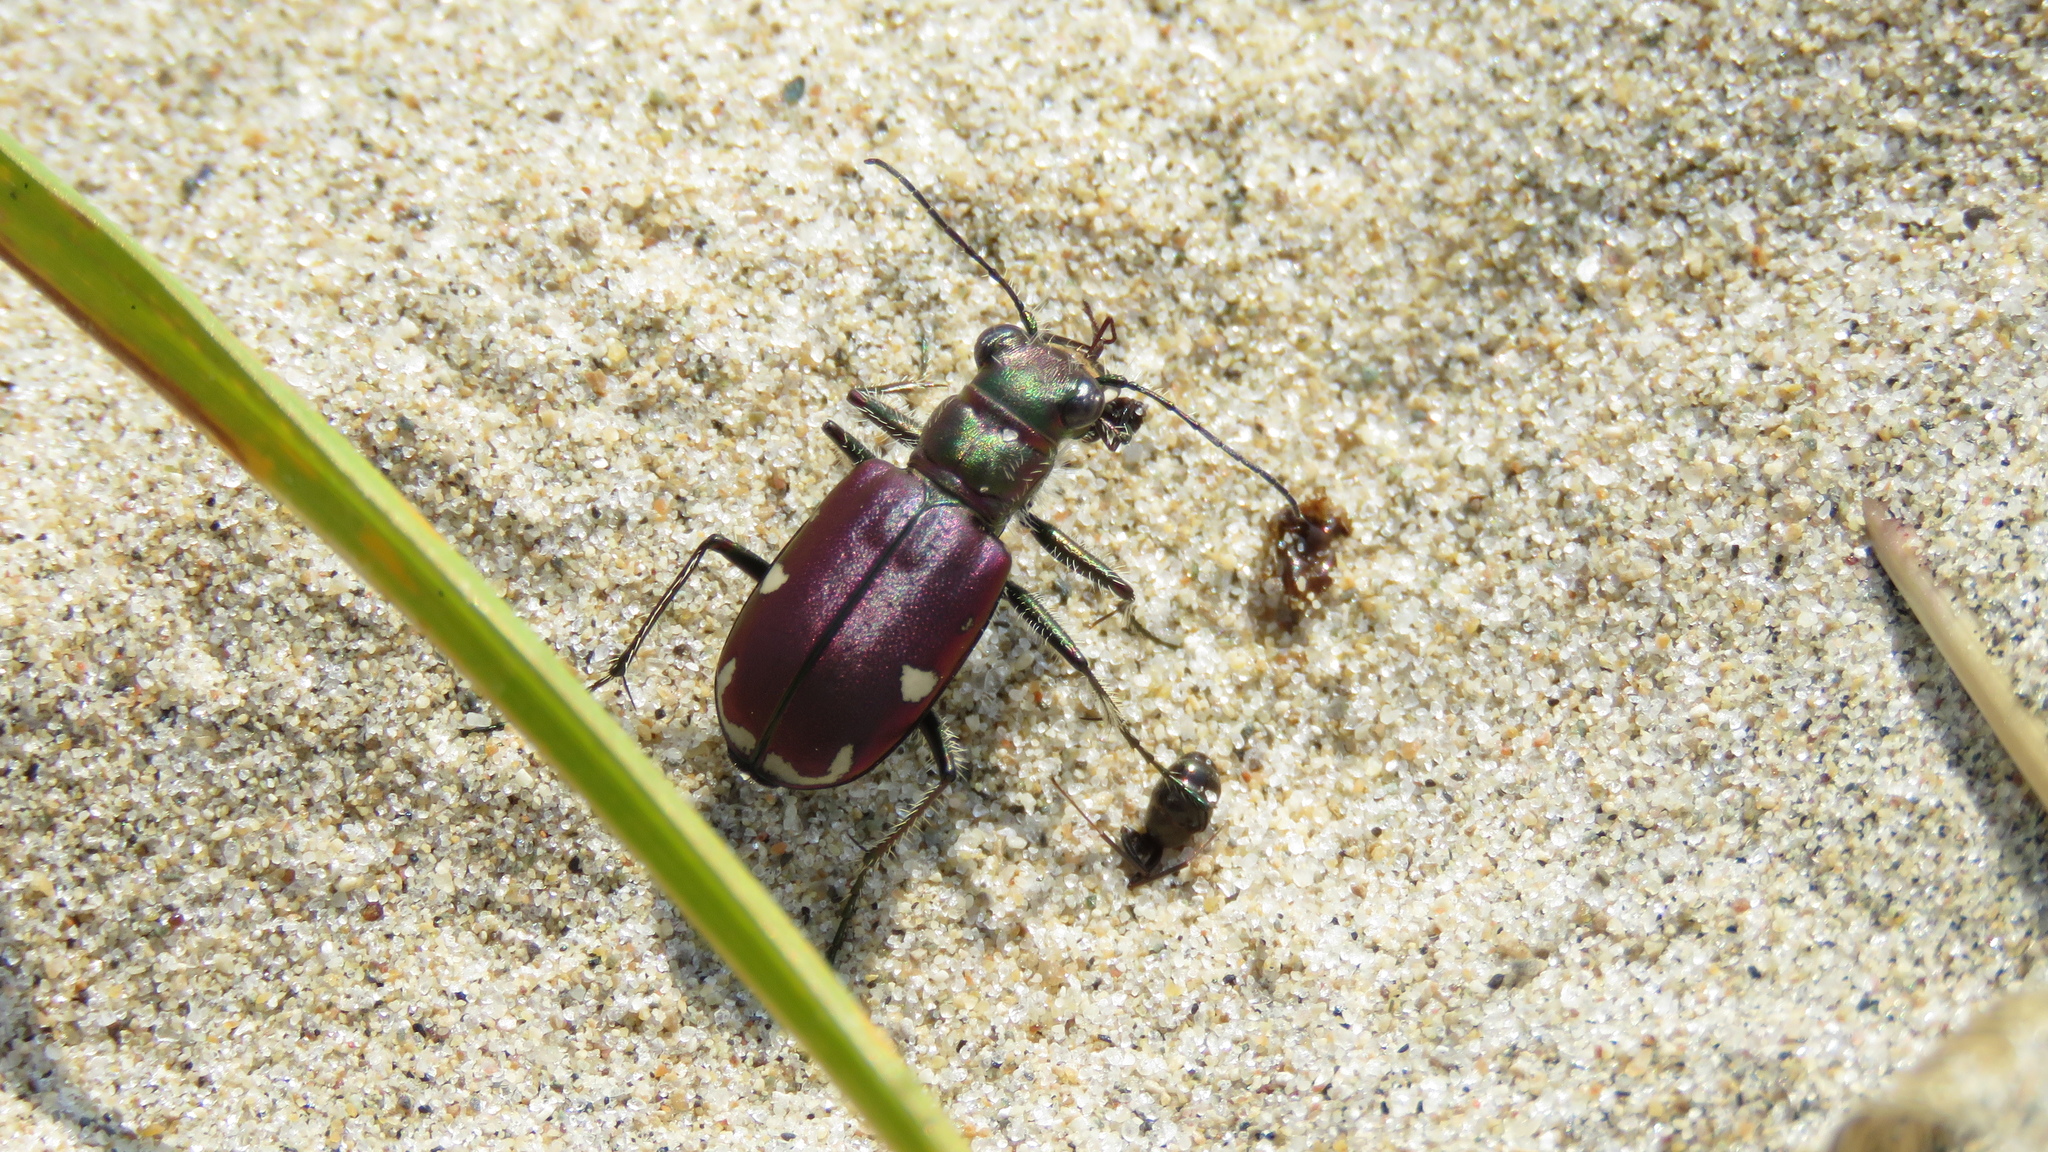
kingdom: Animalia
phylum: Arthropoda
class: Insecta
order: Coleoptera
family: Carabidae
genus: Cicindela
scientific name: Cicindela scutellaris
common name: Festive tiger beetle
